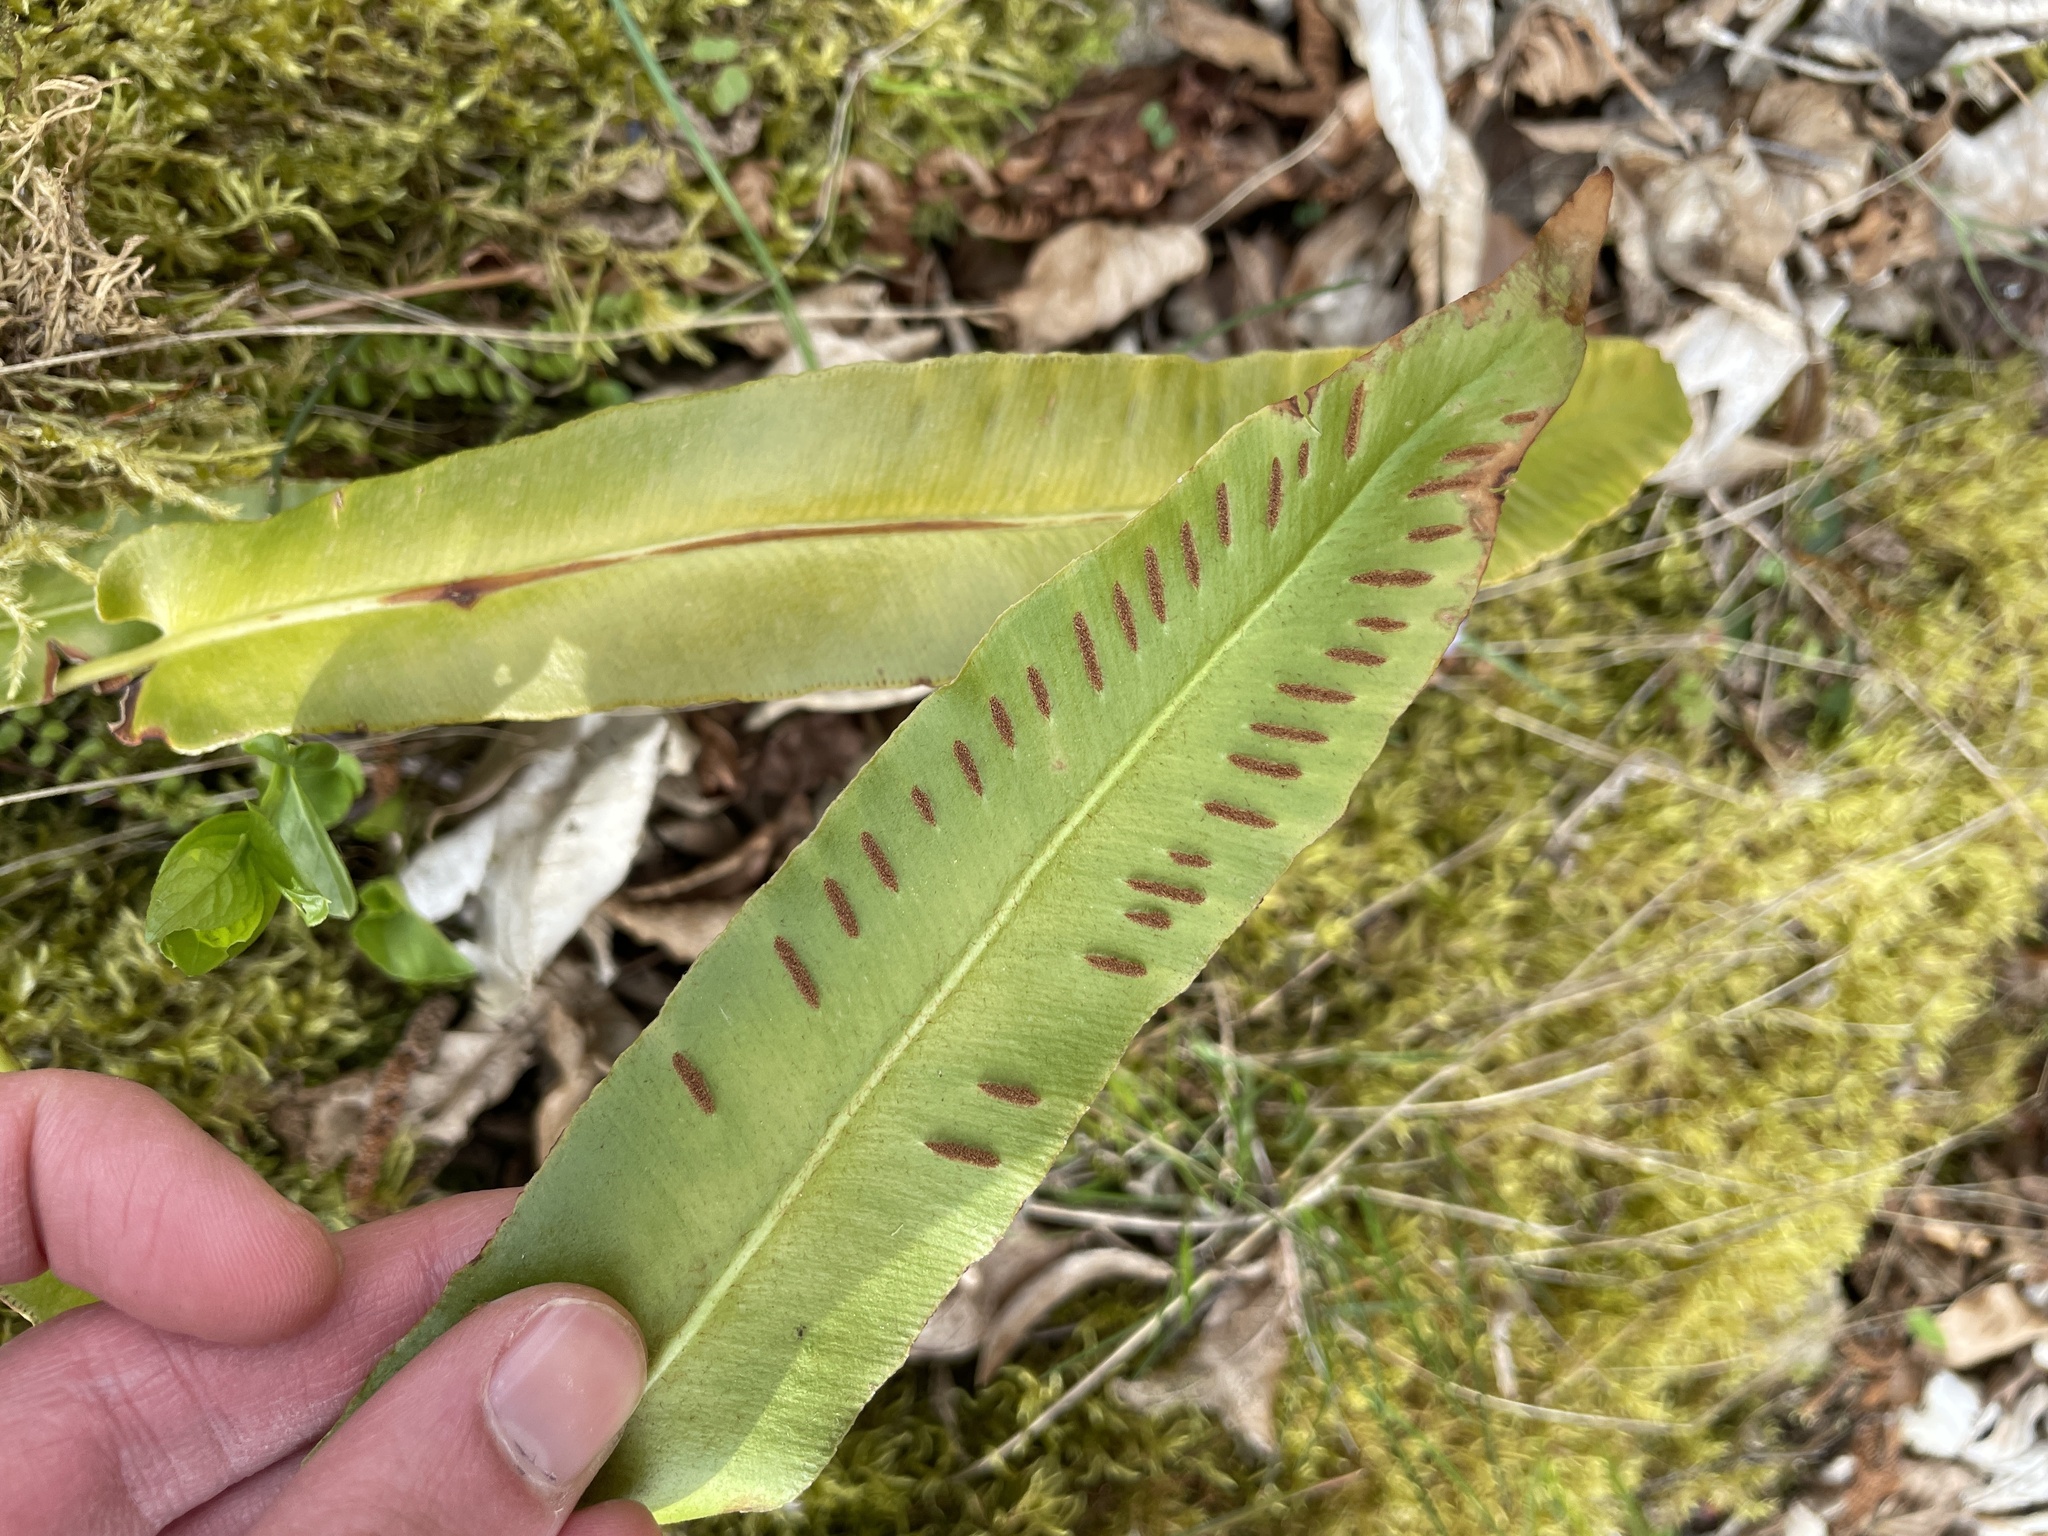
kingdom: Plantae
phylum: Tracheophyta
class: Polypodiopsida
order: Polypodiales
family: Aspleniaceae
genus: Asplenium
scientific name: Asplenium scolopendrium
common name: Hart's-tongue fern
